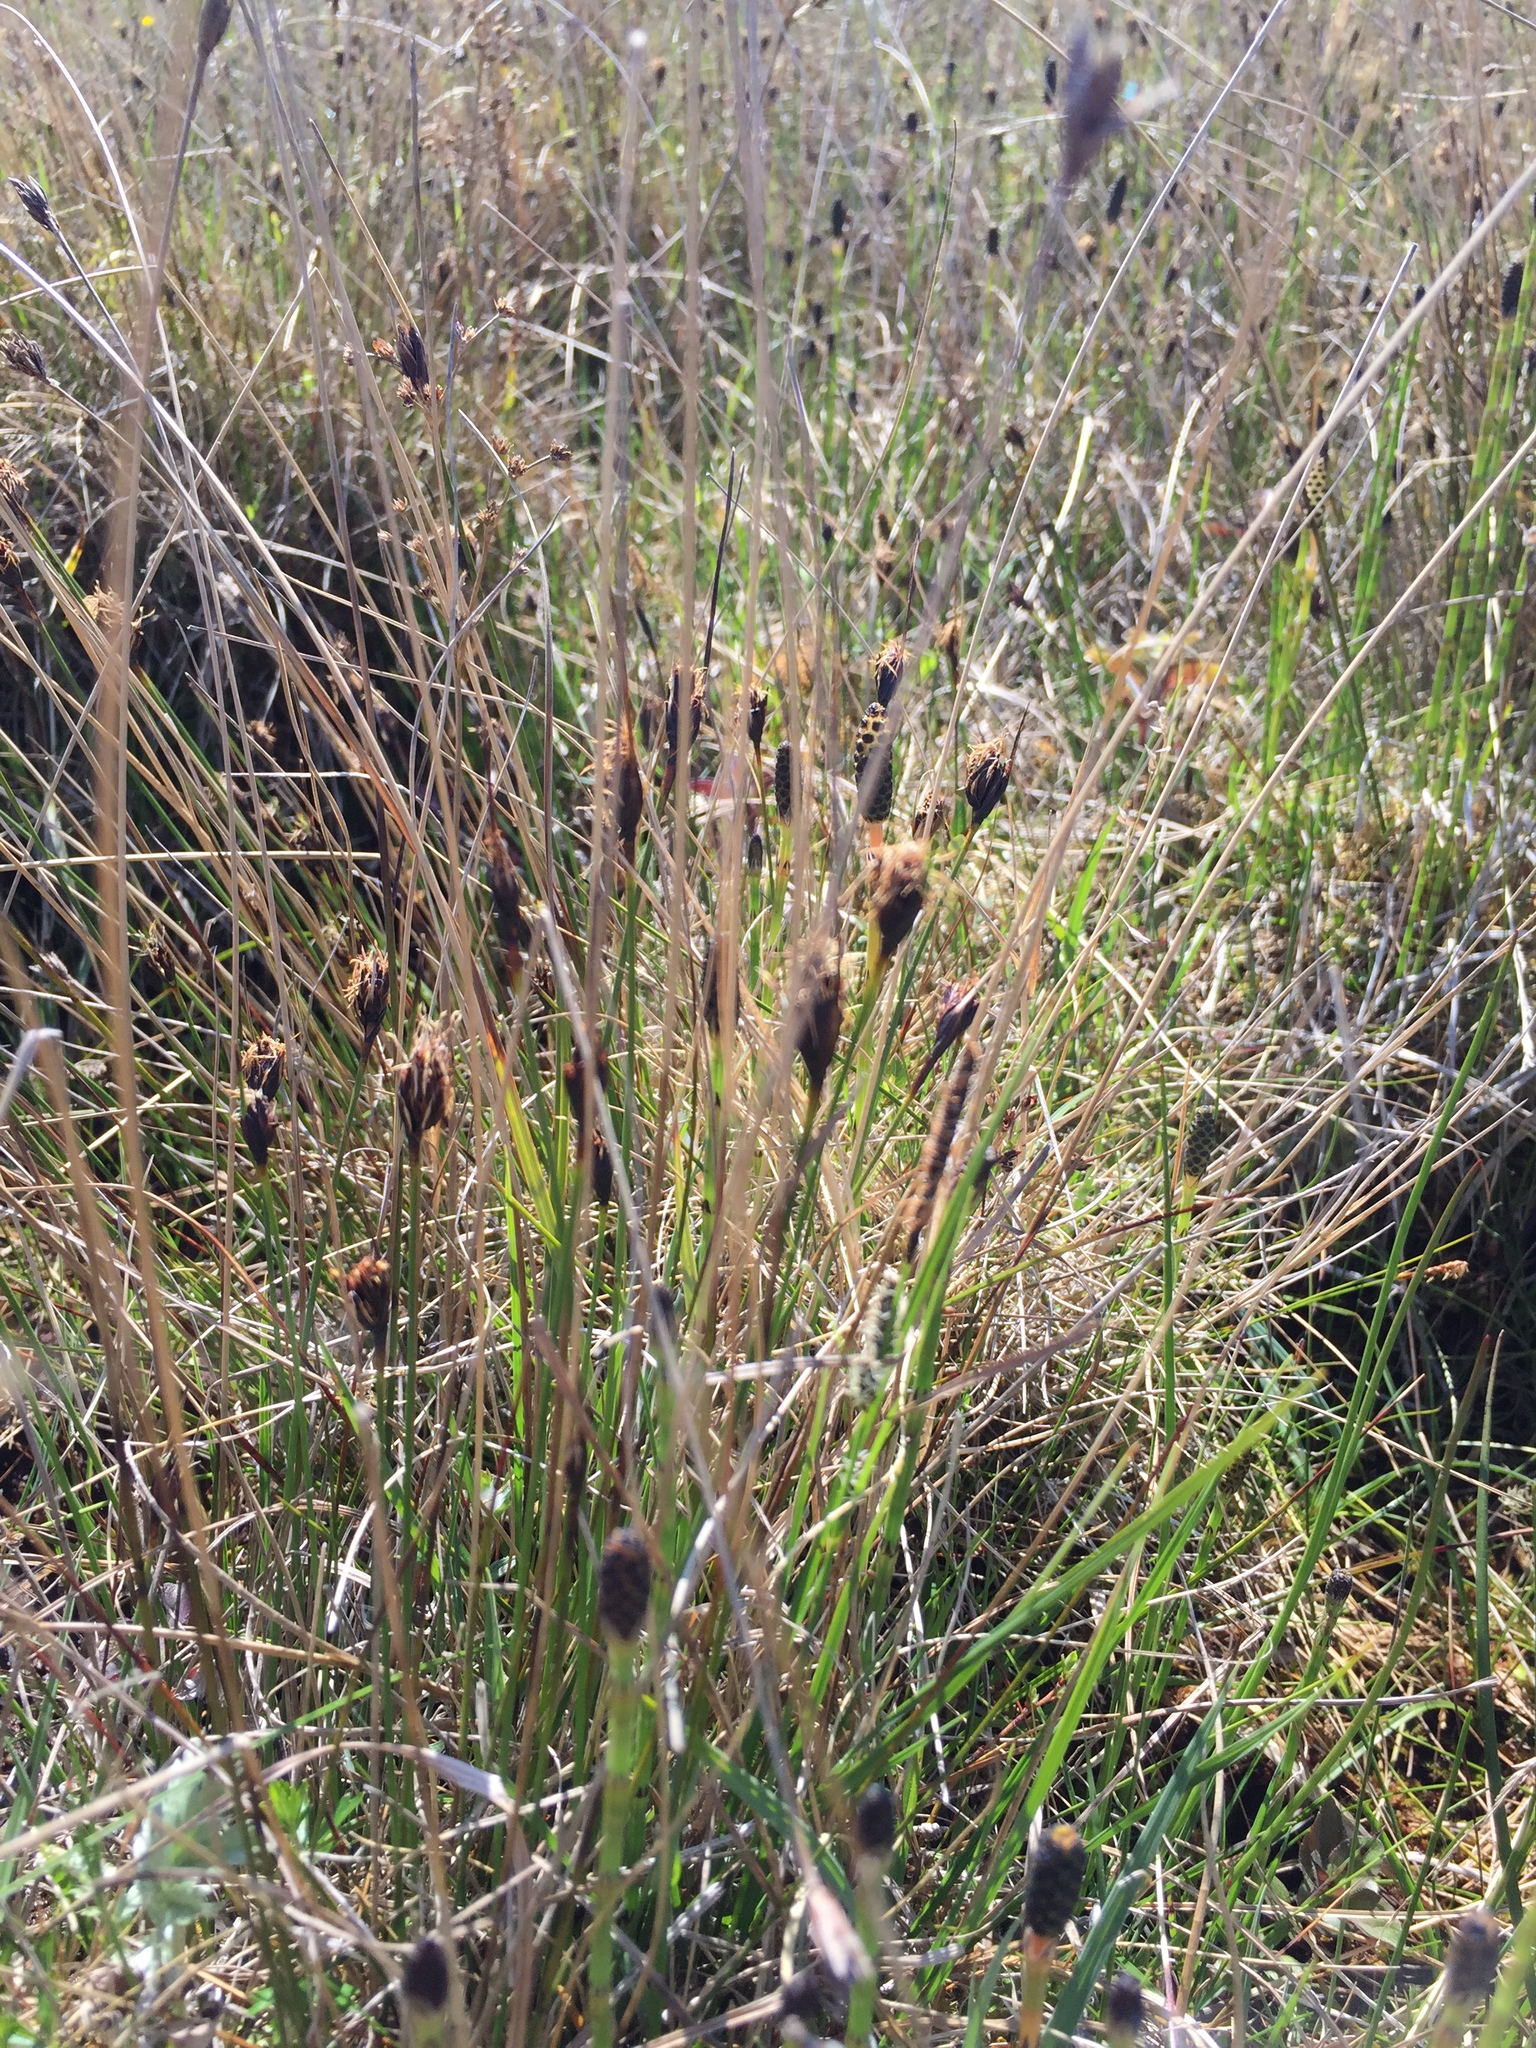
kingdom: Plantae
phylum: Tracheophyta
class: Liliopsida
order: Poales
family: Cyperaceae
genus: Schoenus
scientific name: Schoenus nigricans
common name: Black bog-rush
